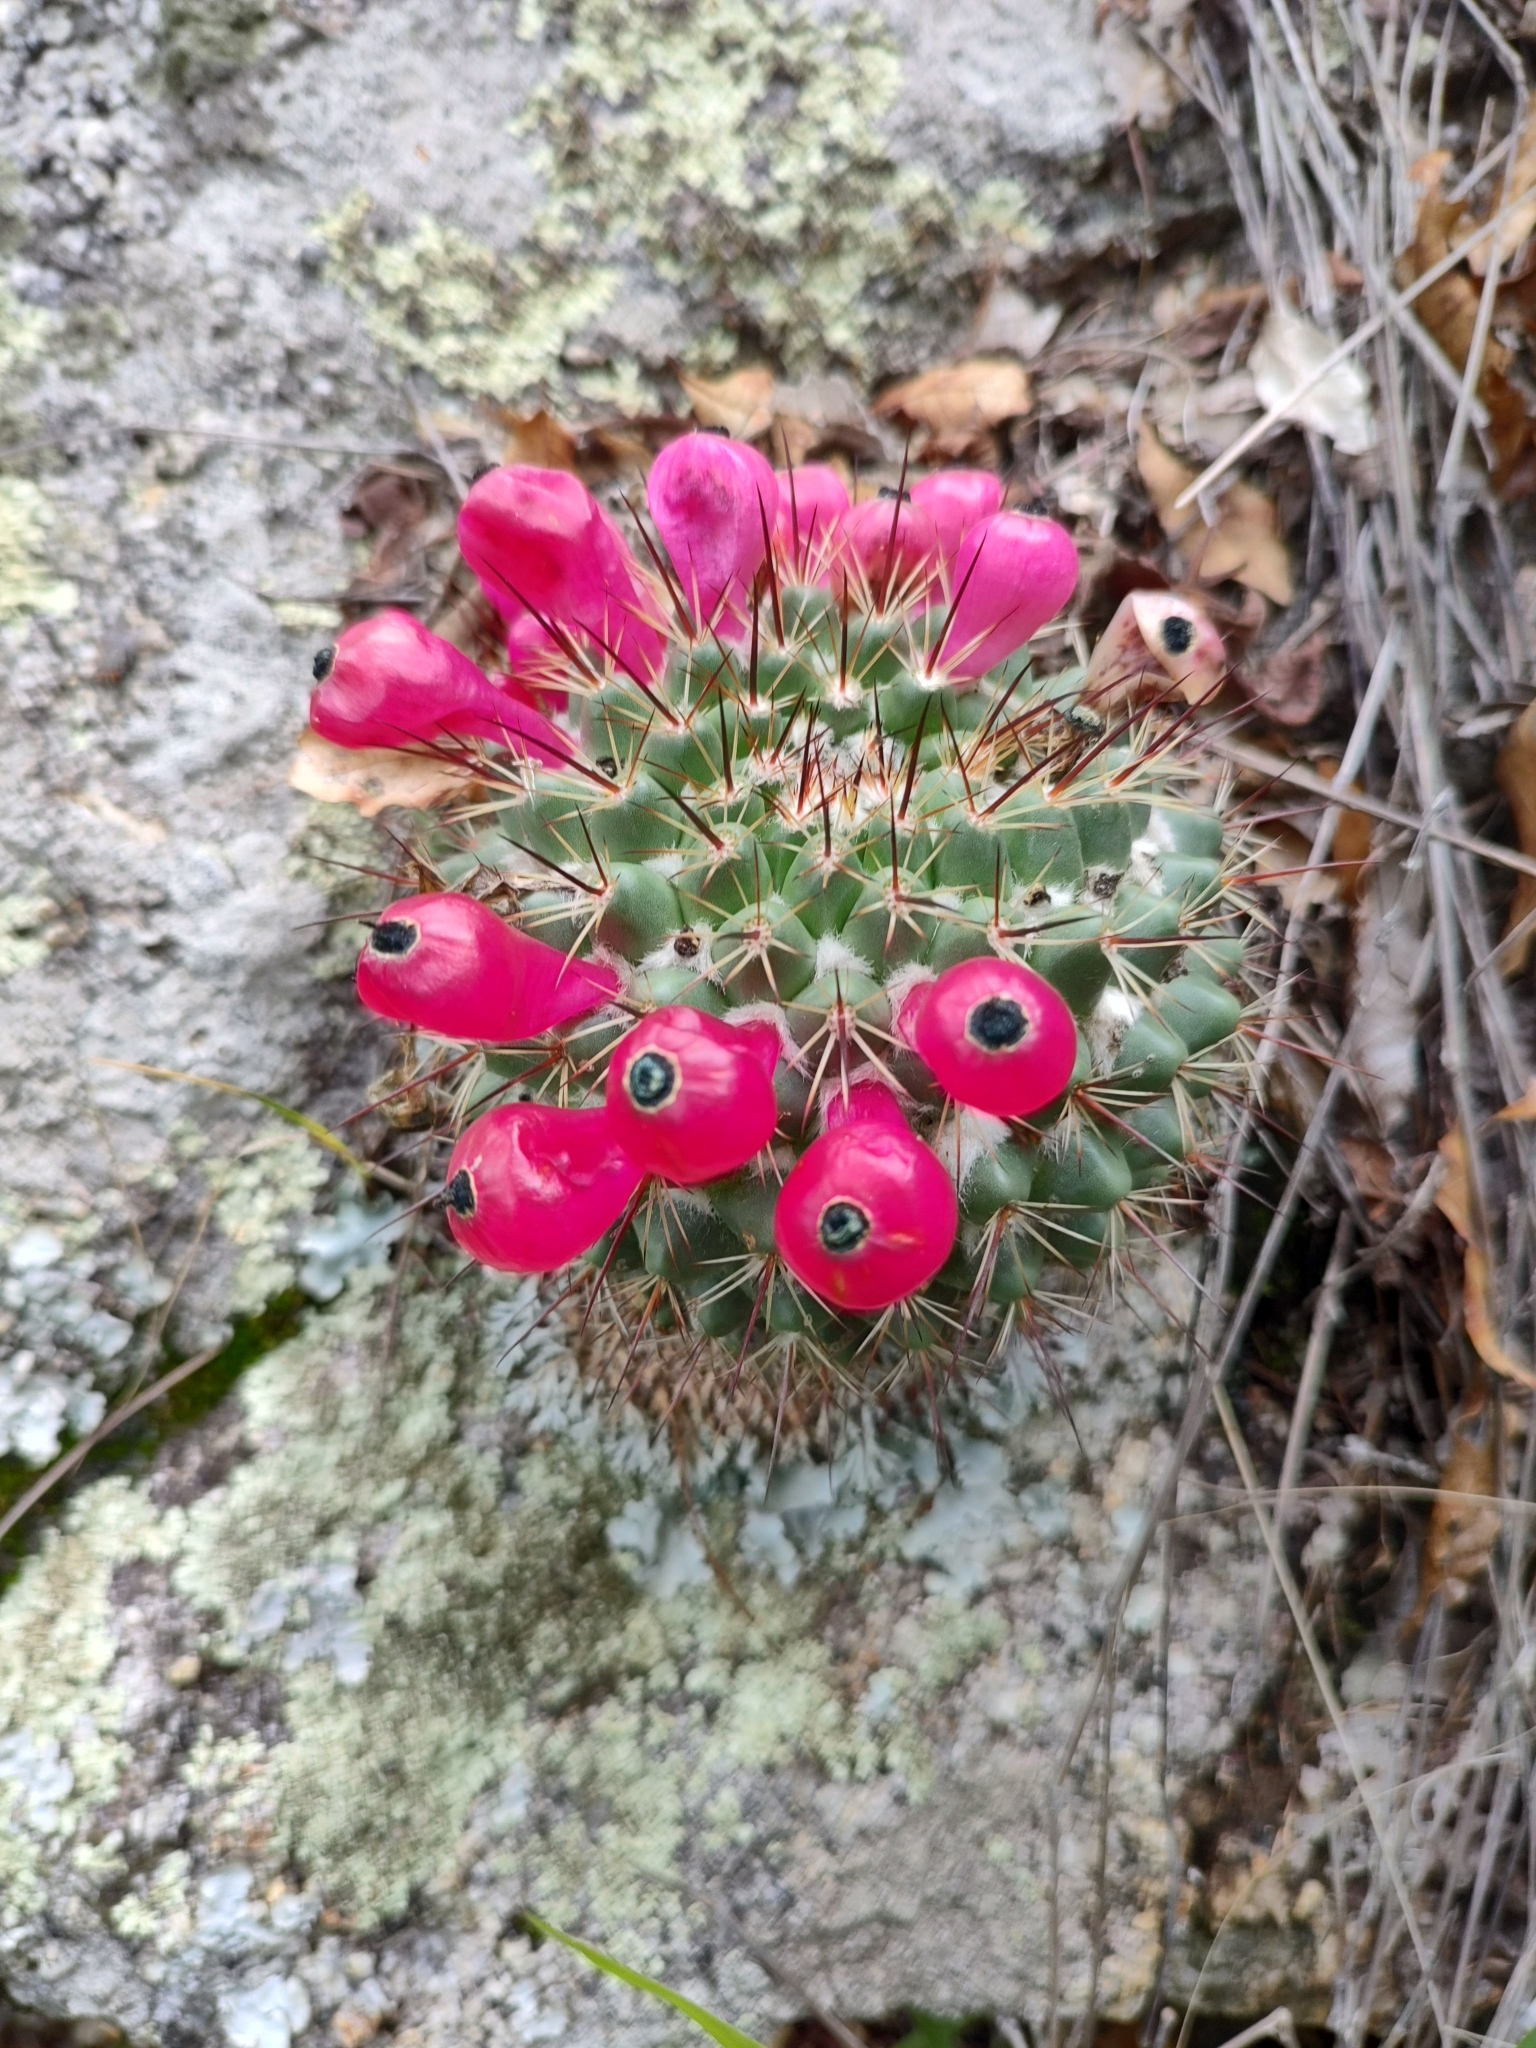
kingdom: Plantae
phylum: Tracheophyta
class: Magnoliopsida
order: Caryophyllales
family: Cactaceae
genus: Mammillaria
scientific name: Mammillaria petrophila
